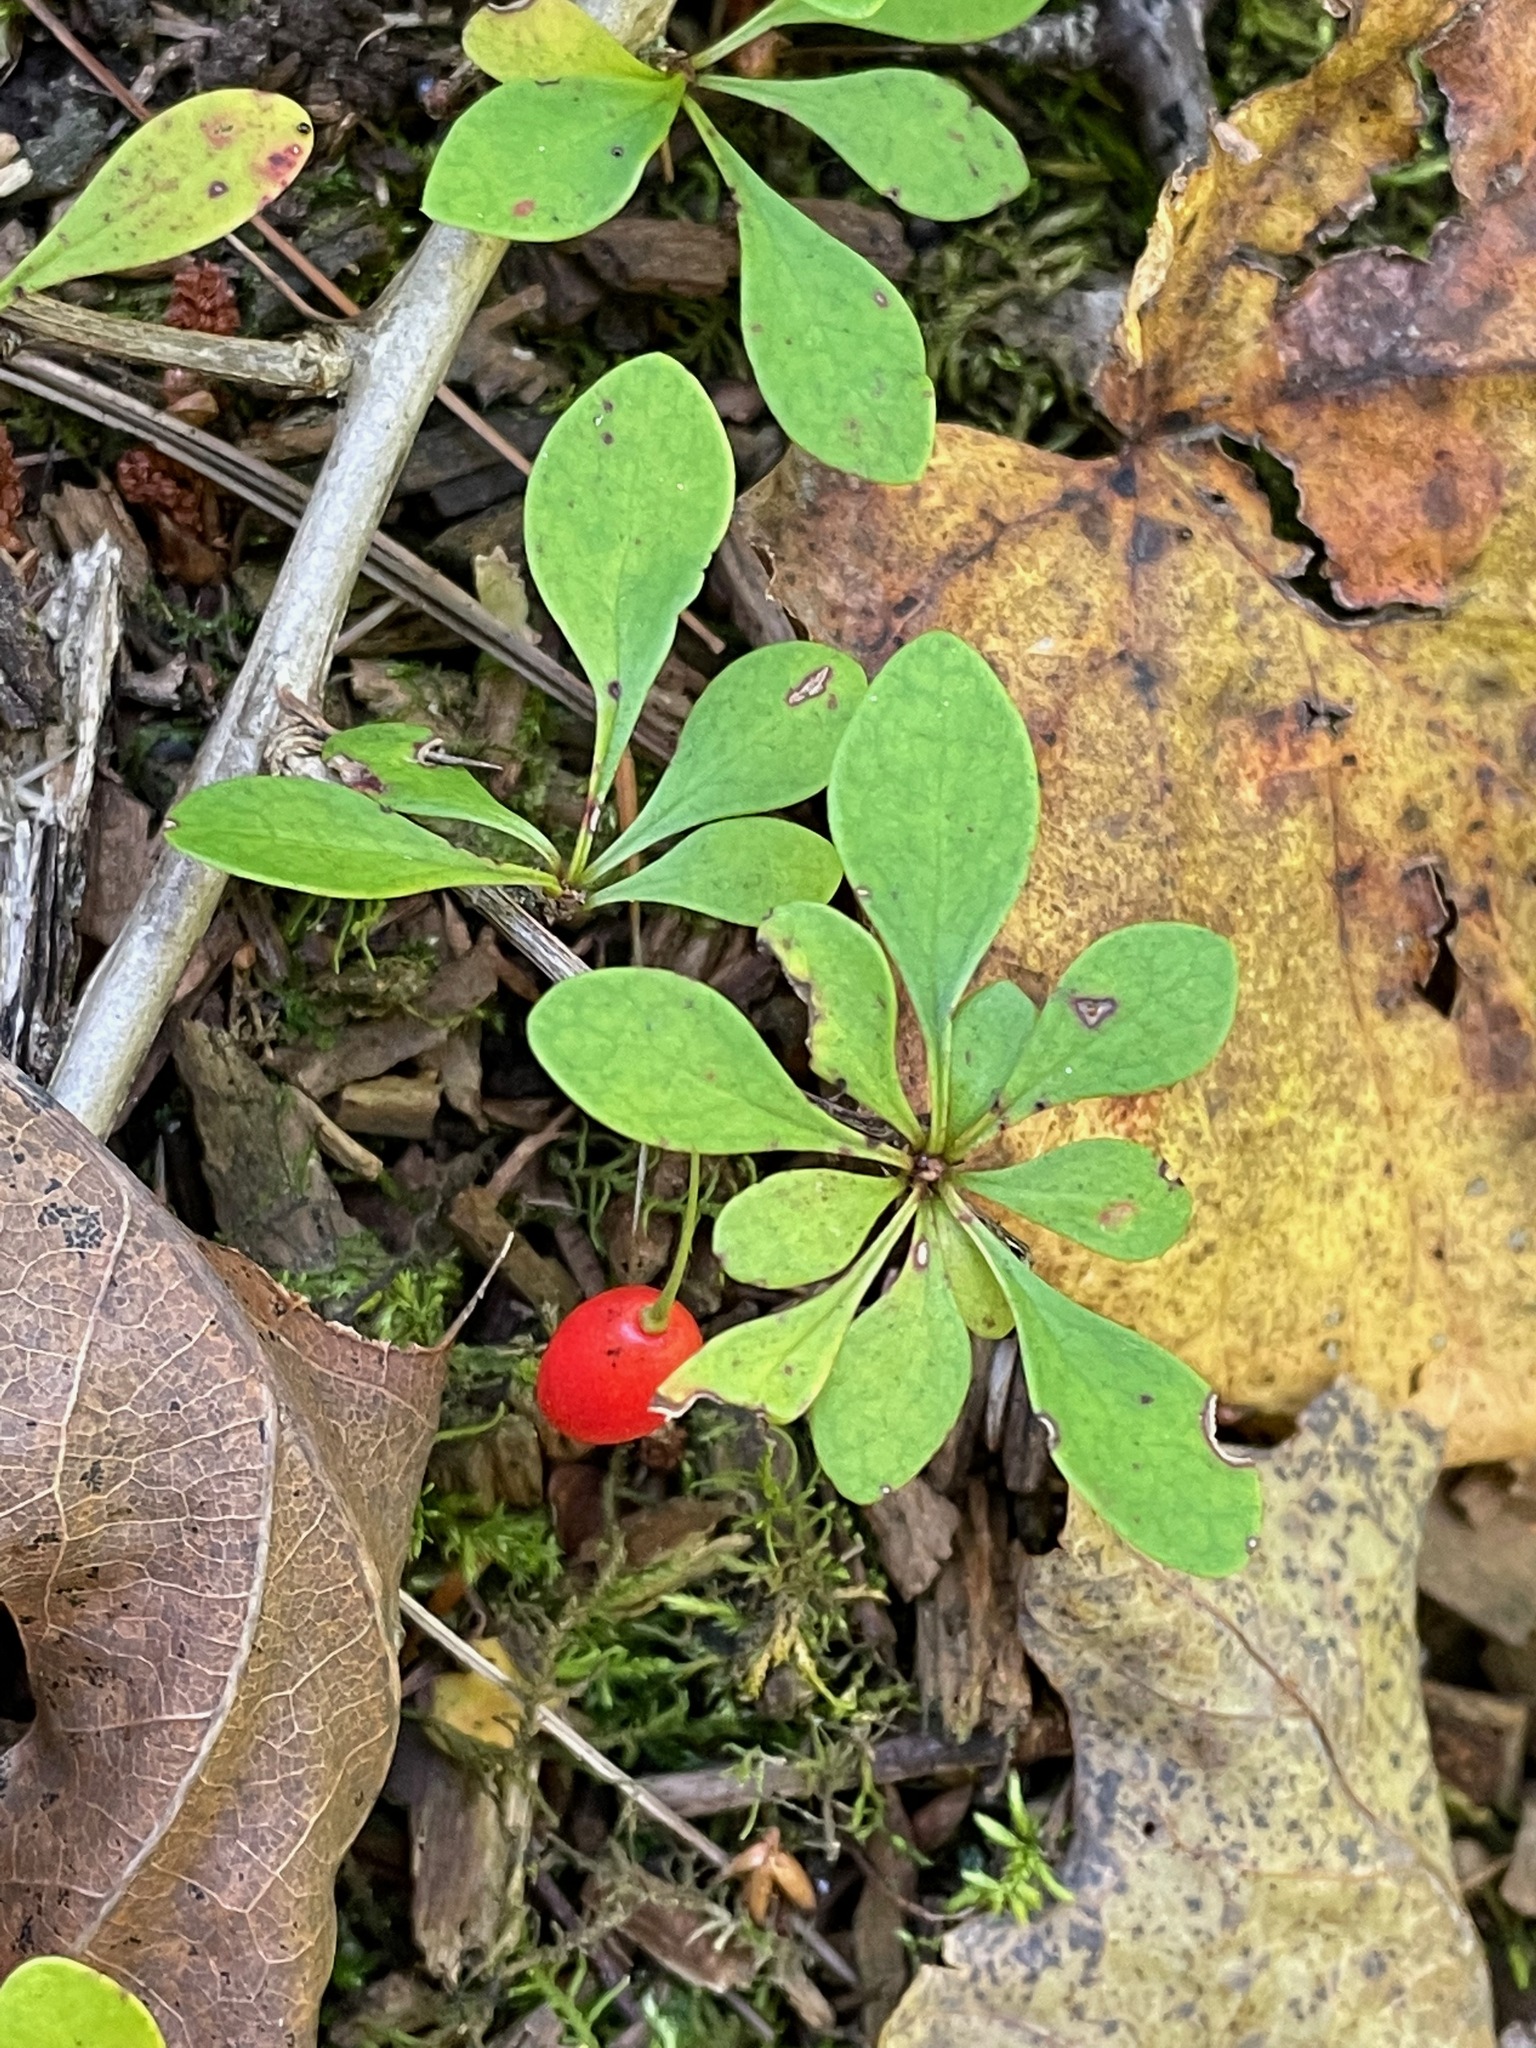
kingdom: Plantae
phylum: Tracheophyta
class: Magnoliopsida
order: Ranunculales
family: Berberidaceae
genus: Berberis
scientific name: Berberis thunbergii
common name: Japanese barberry
